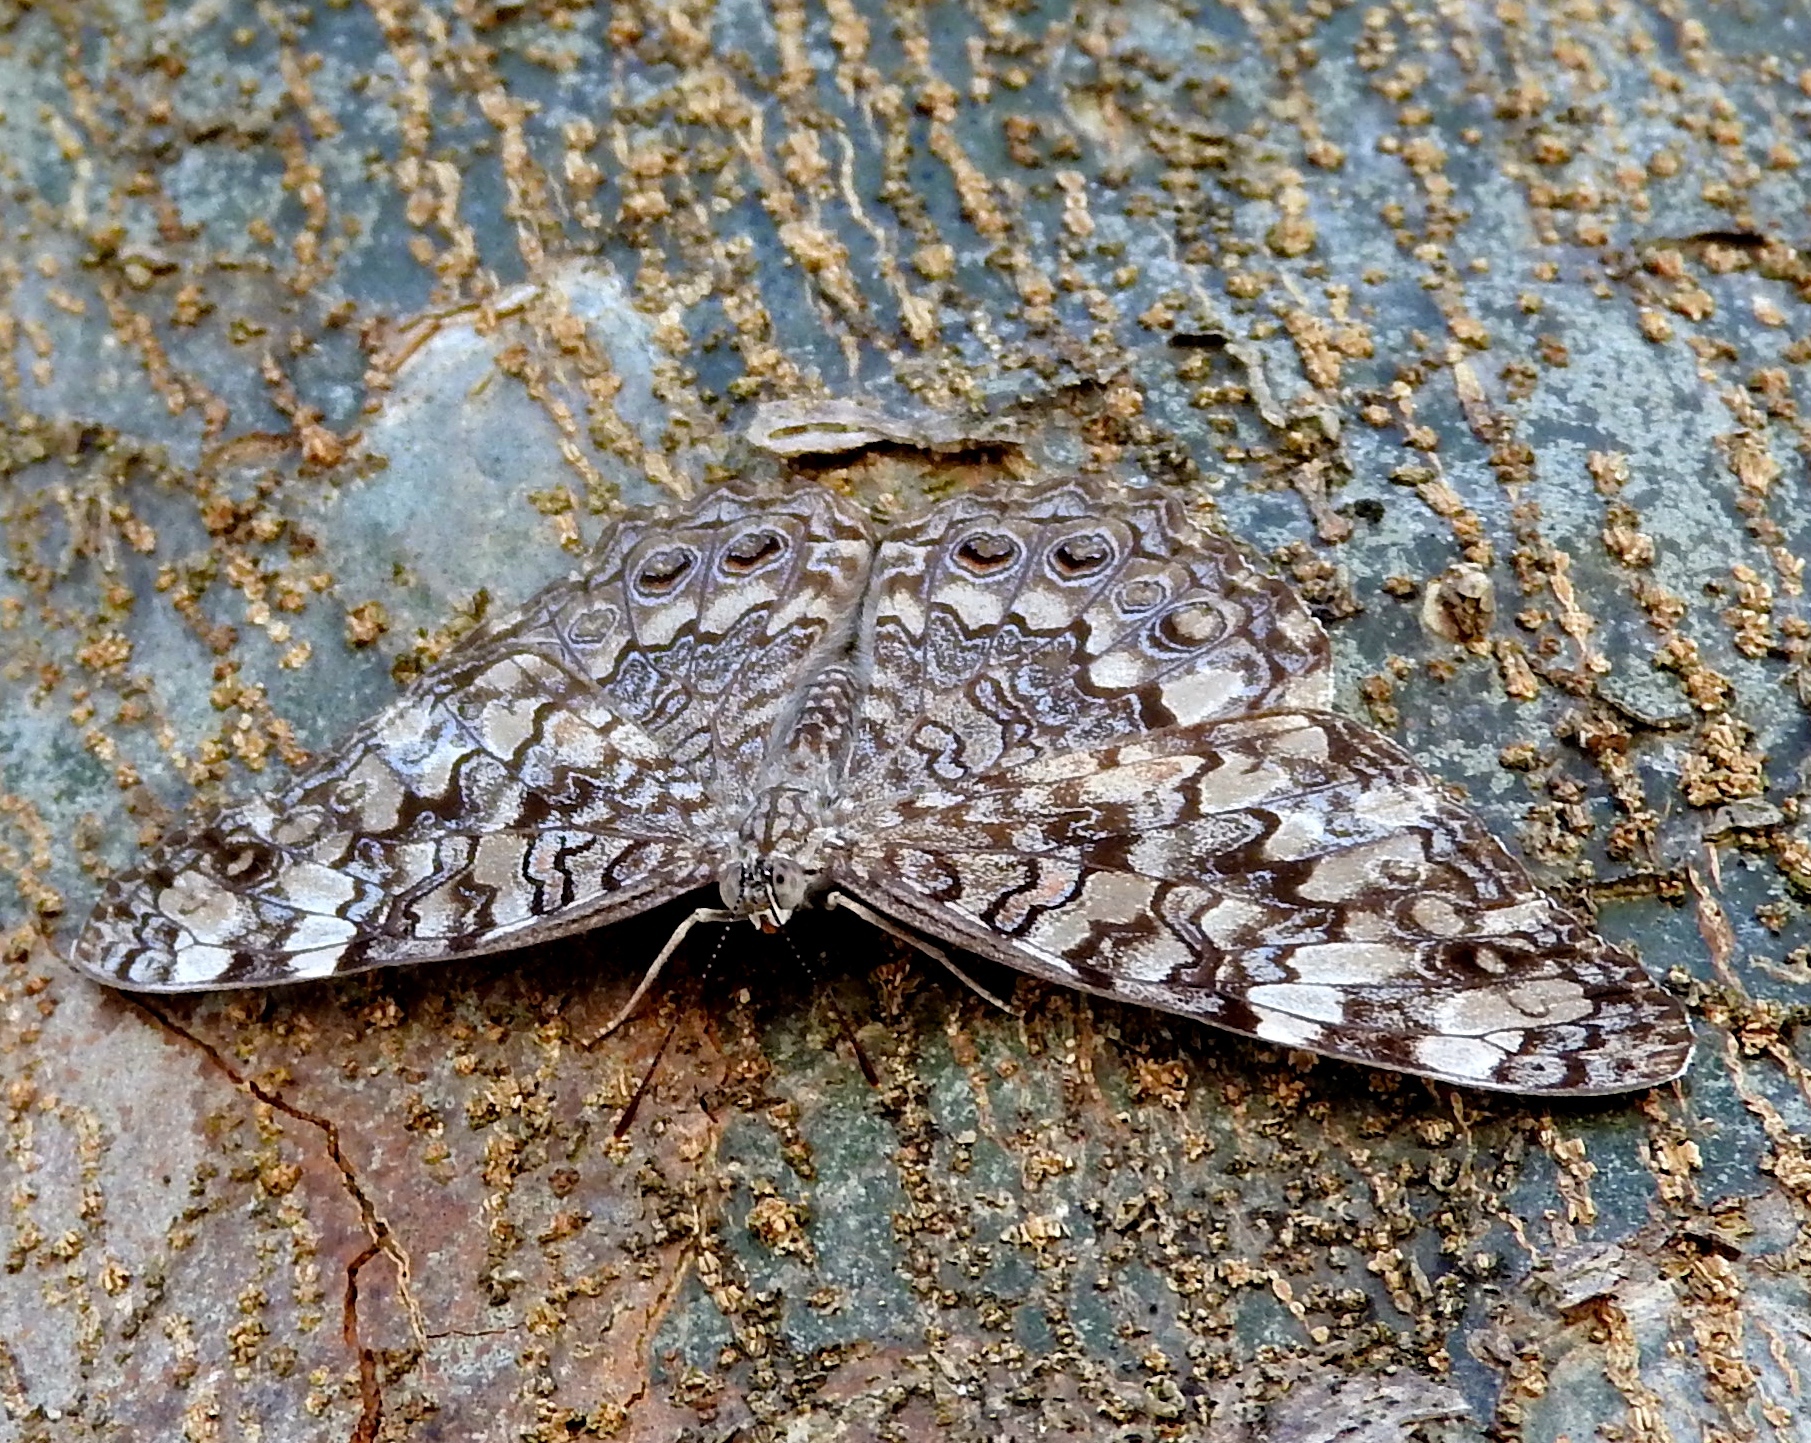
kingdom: Animalia
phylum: Arthropoda
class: Insecta
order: Lepidoptera
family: Nymphalidae
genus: Hamadryas
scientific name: Hamadryas februa
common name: Gray cracker
